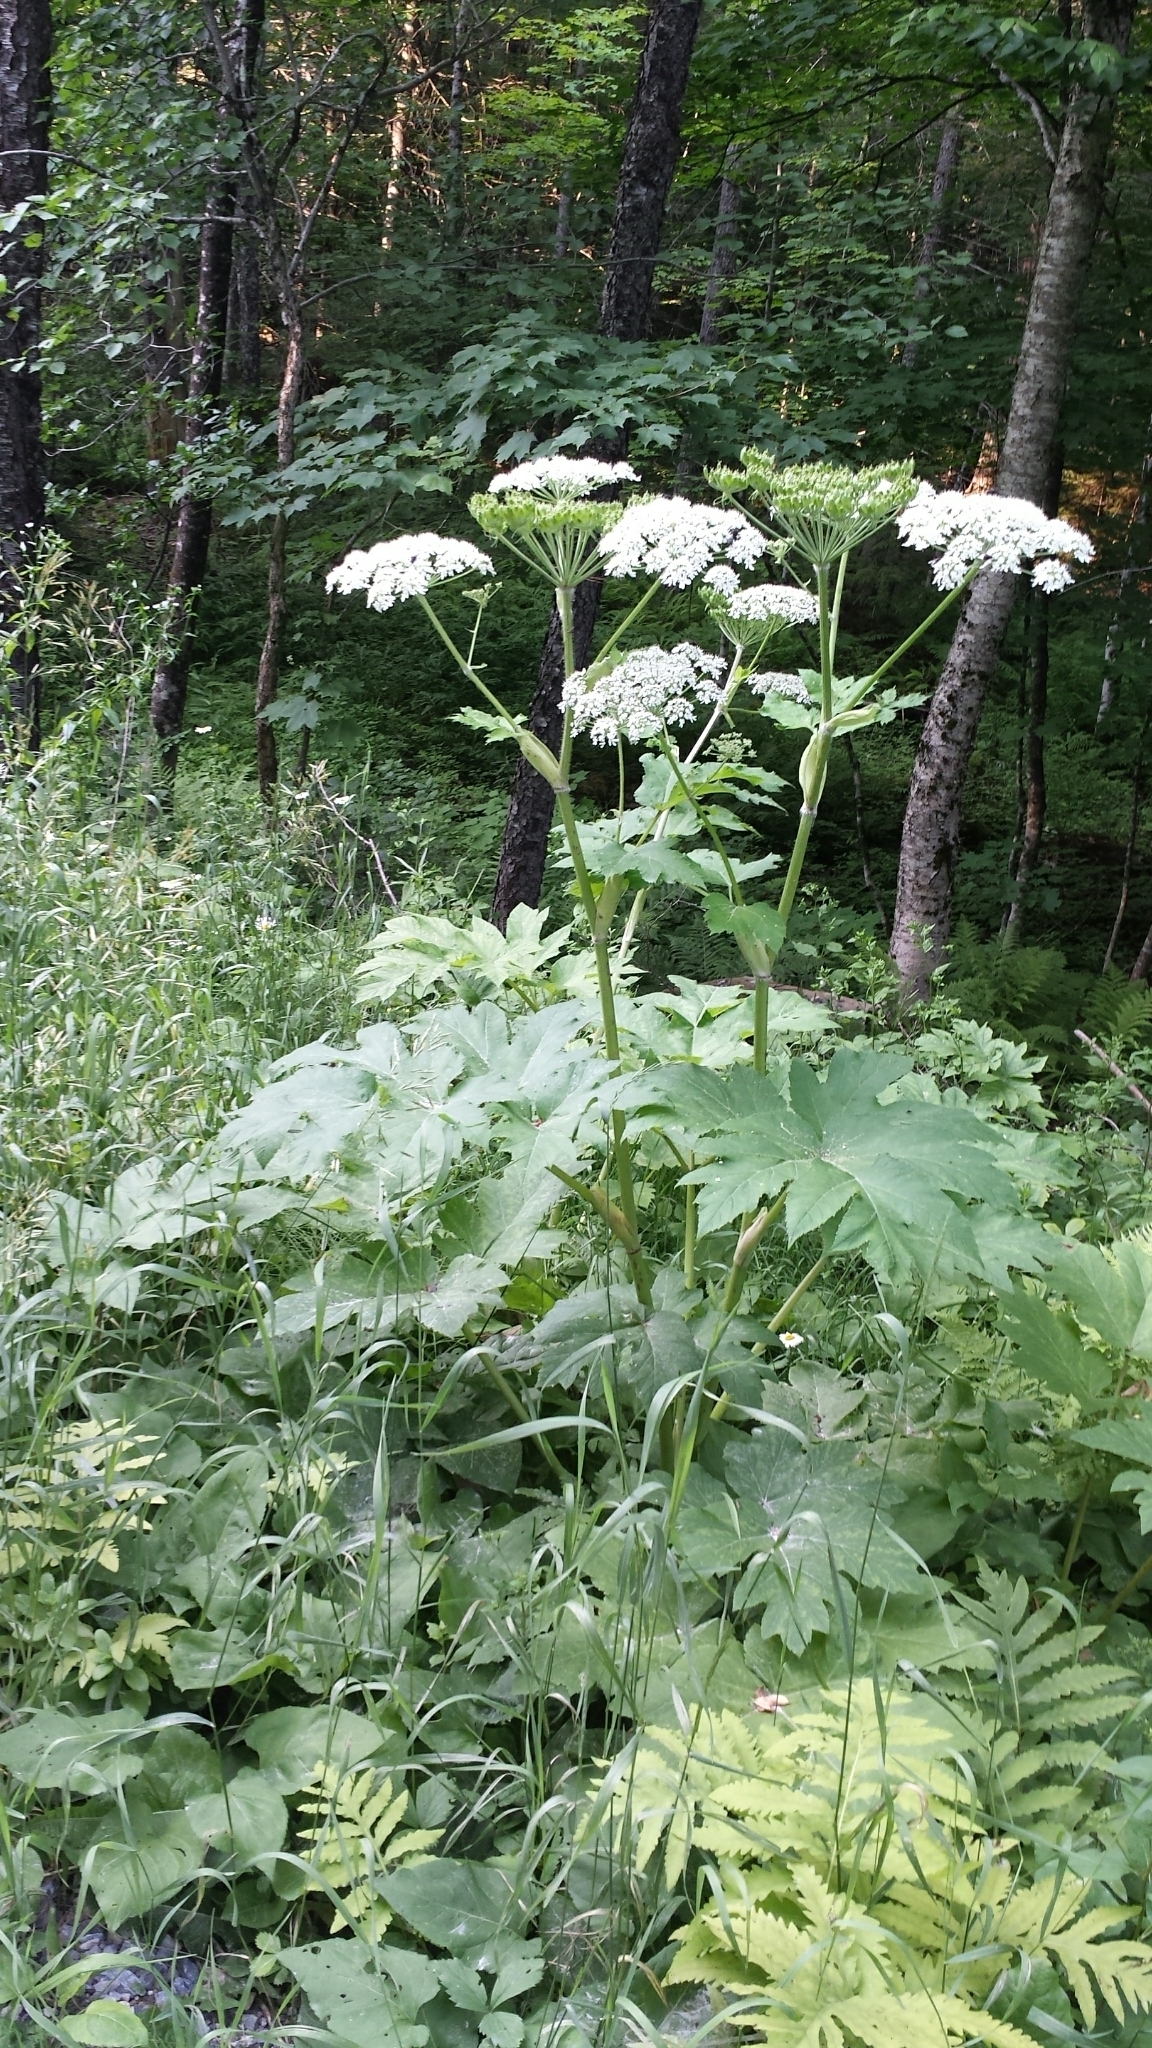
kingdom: Plantae
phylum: Tracheophyta
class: Magnoliopsida
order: Apiales
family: Apiaceae
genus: Heracleum
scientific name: Heracleum maximum
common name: American cow parsnip
